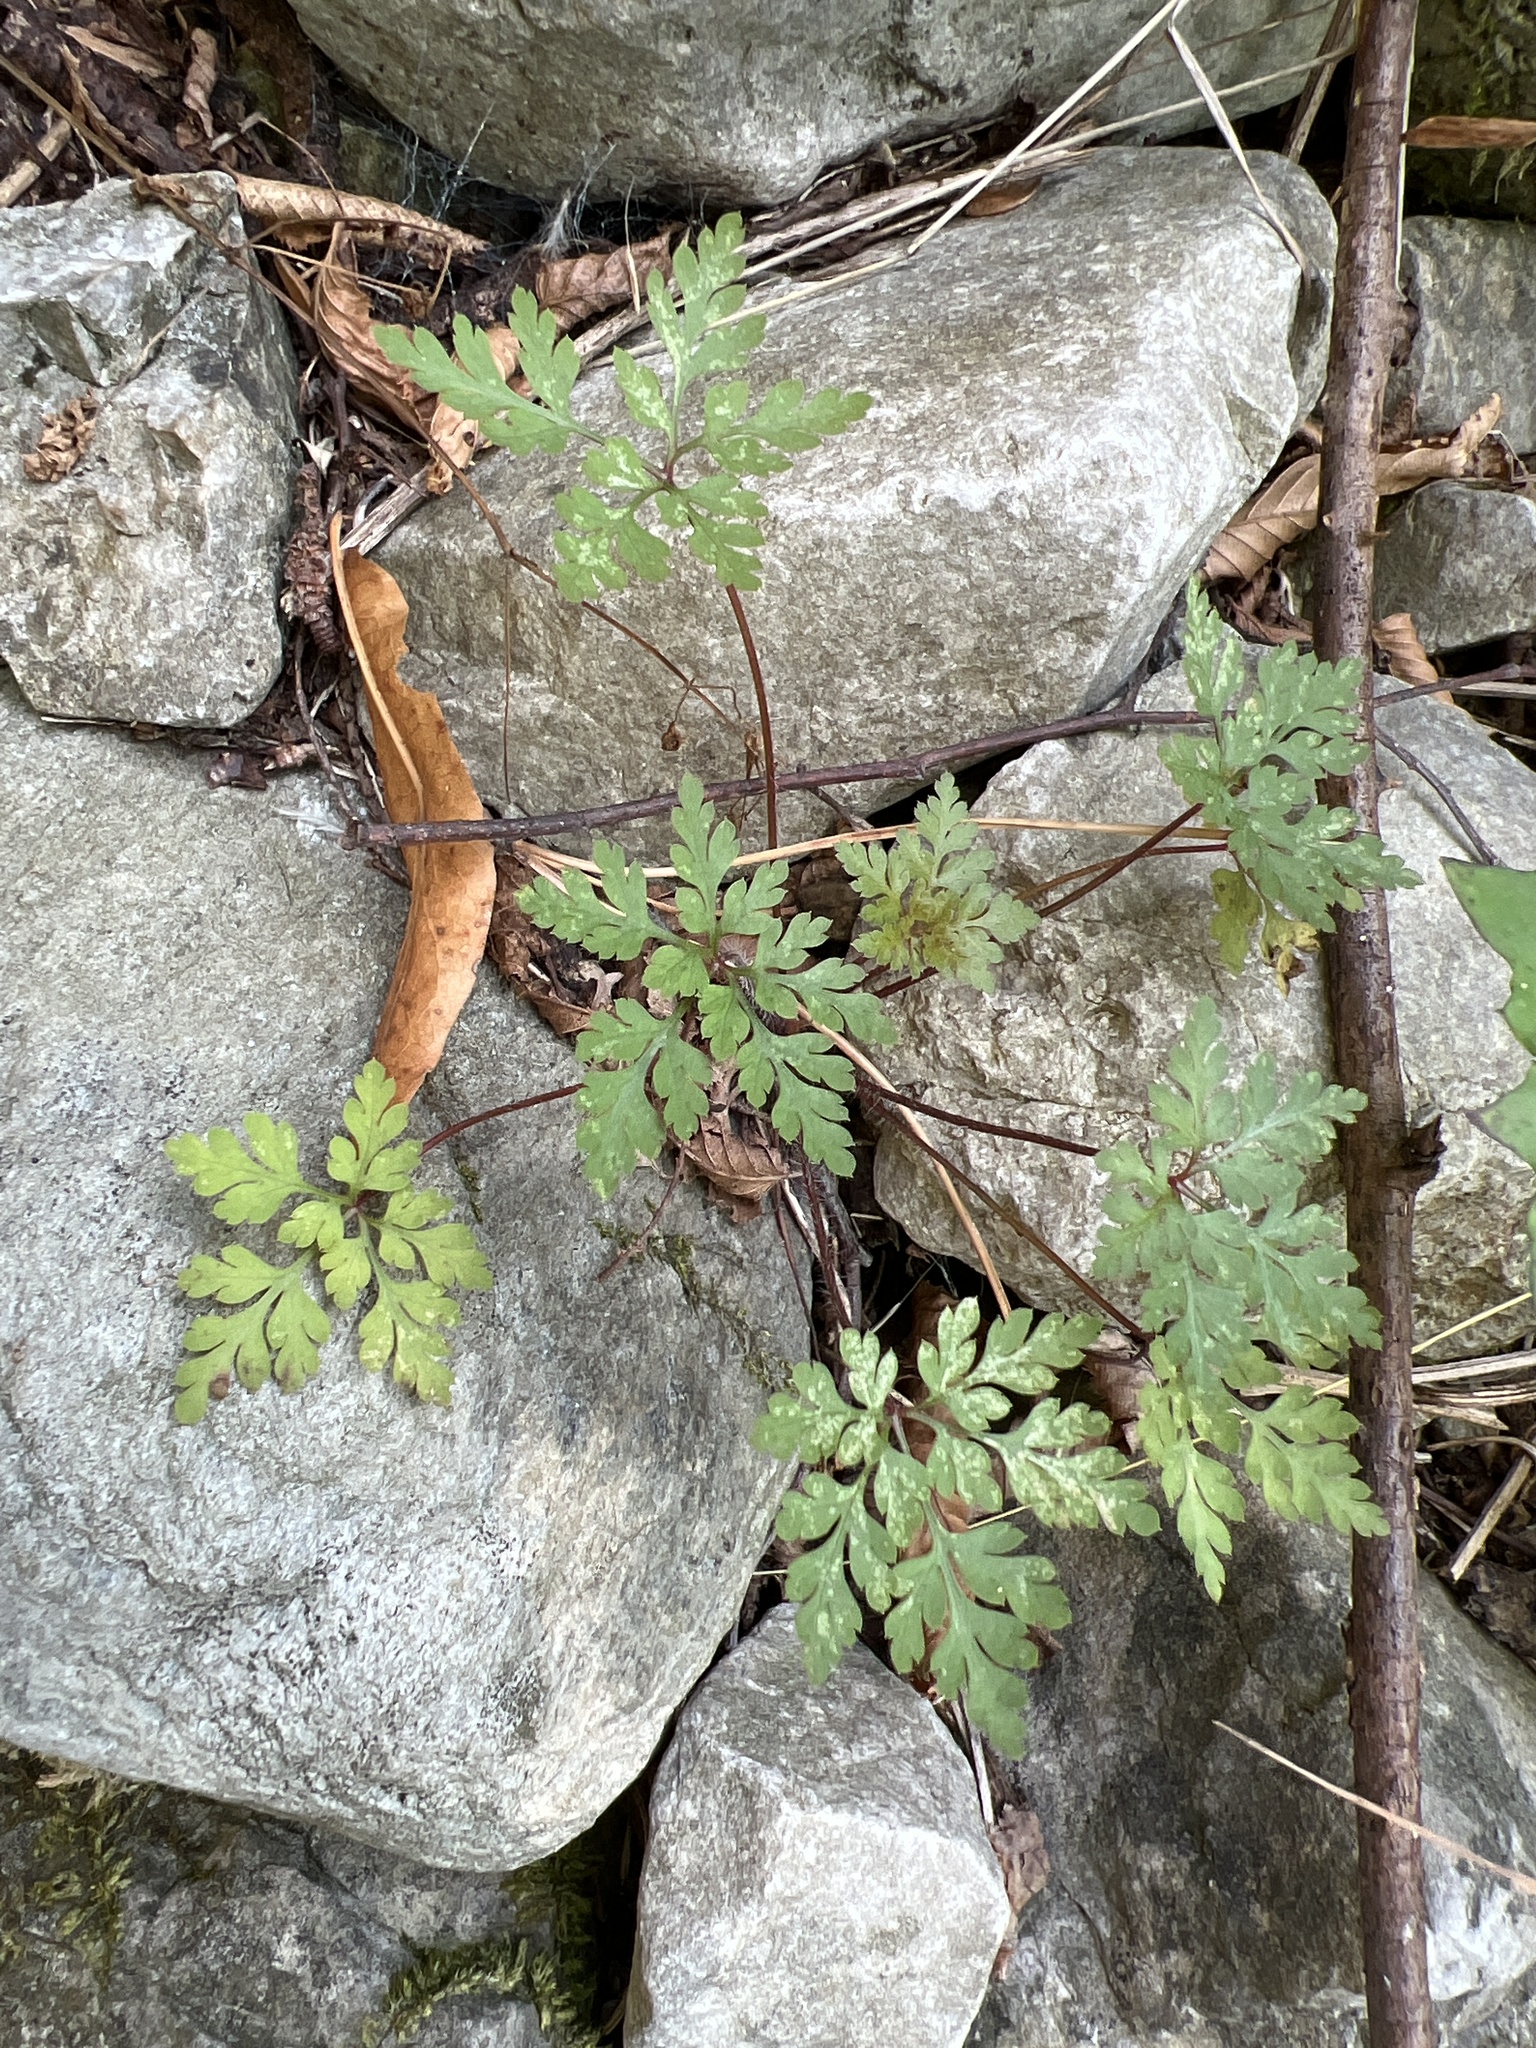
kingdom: Plantae
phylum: Tracheophyta
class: Magnoliopsida
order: Geraniales
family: Geraniaceae
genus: Geranium
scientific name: Geranium robertianum
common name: Herb-robert
